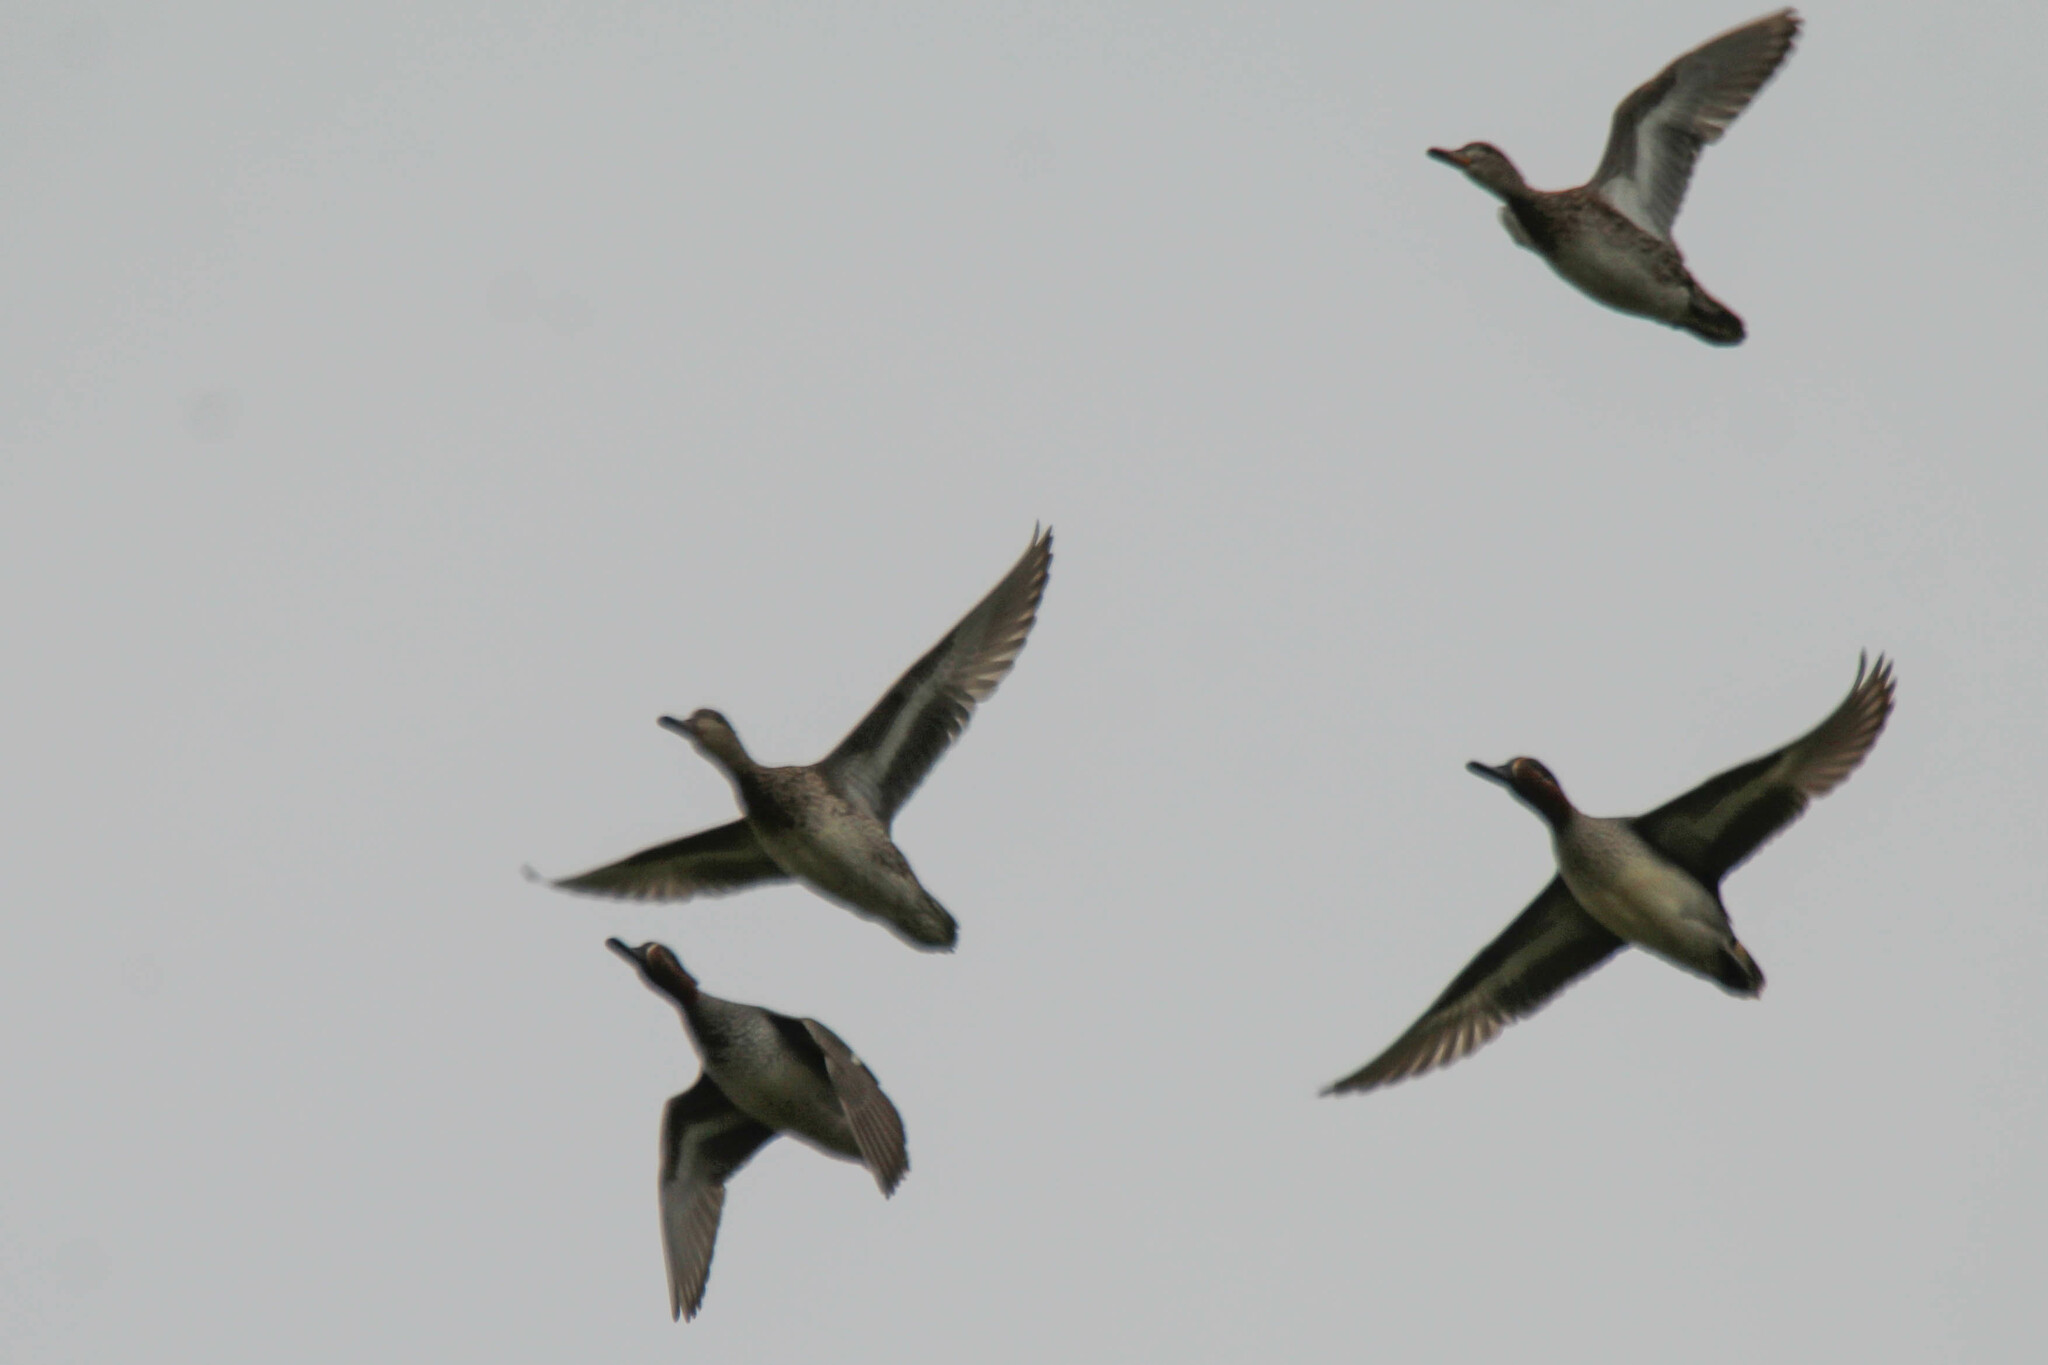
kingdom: Animalia
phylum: Chordata
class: Aves
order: Anseriformes
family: Anatidae
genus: Anas
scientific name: Anas crecca
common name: Eurasian teal
